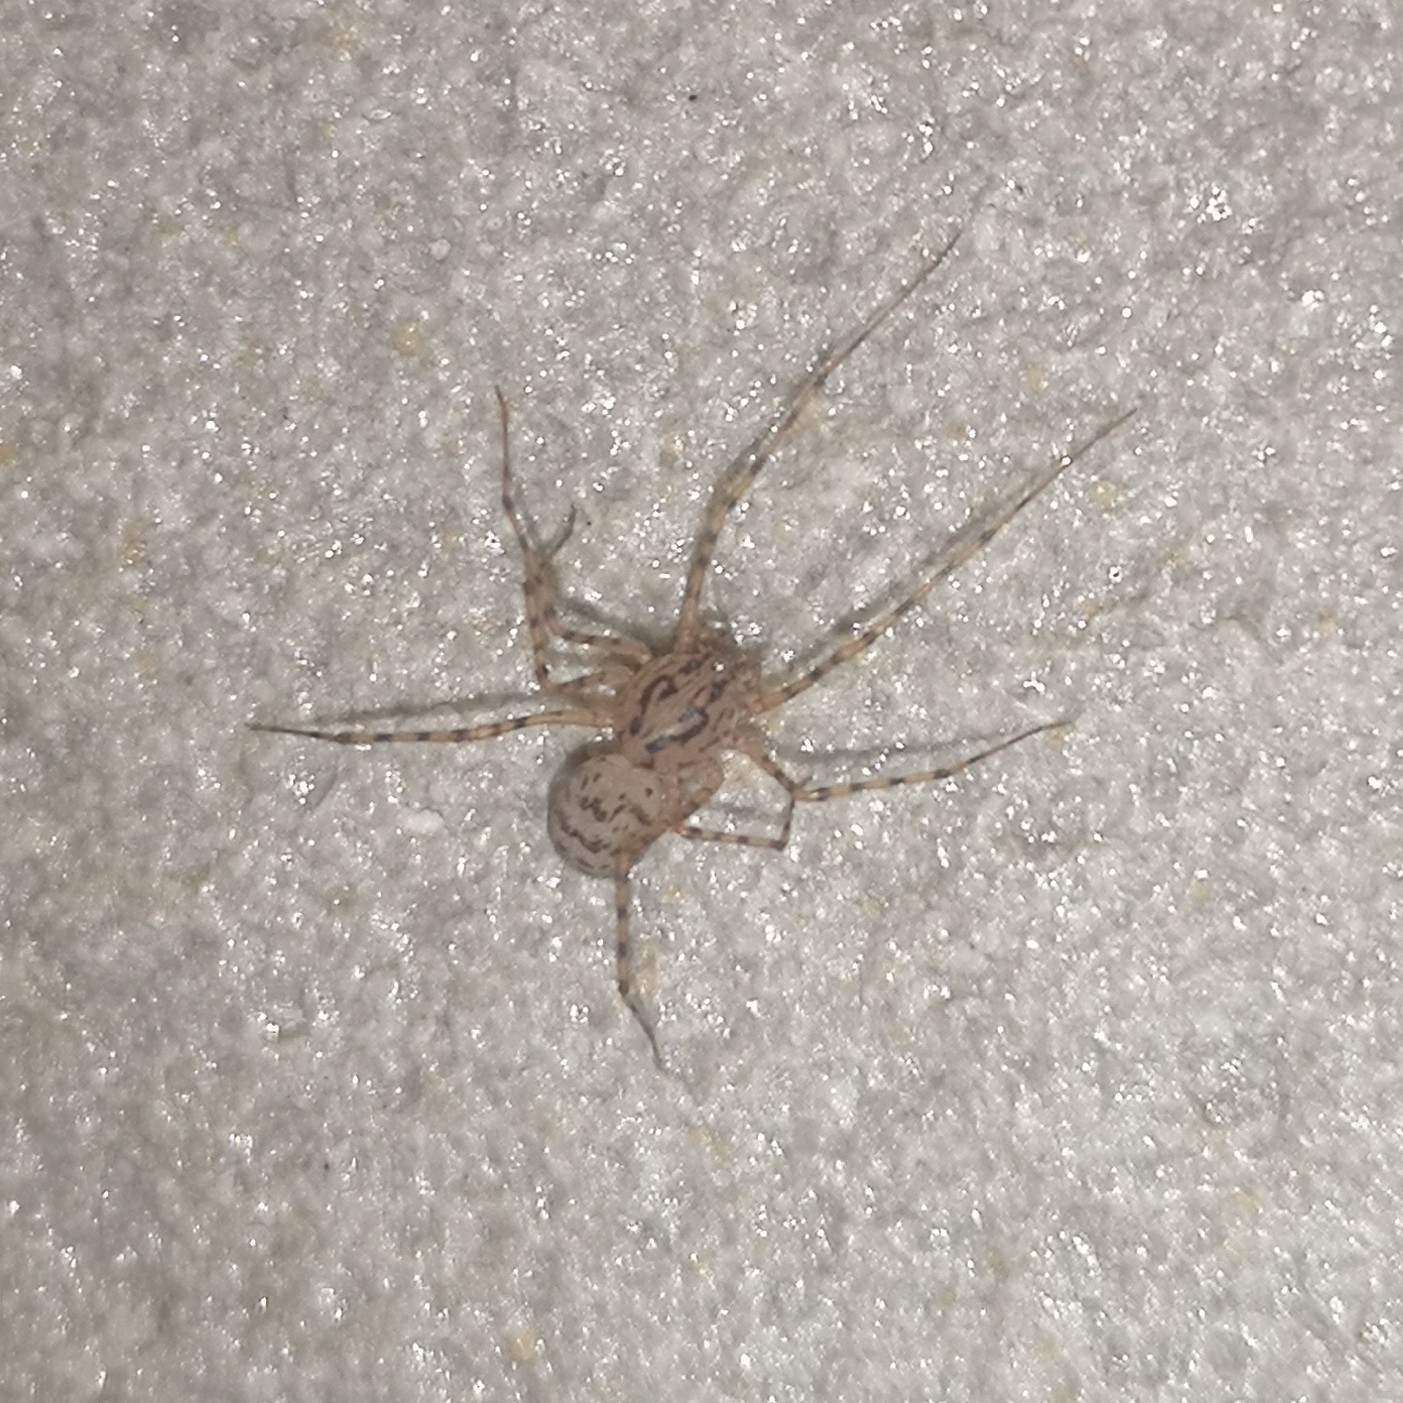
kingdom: Animalia
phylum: Arthropoda
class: Arachnida
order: Araneae
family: Scytodidae
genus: Scytodes
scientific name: Scytodes thoracica
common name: Spitting spider
